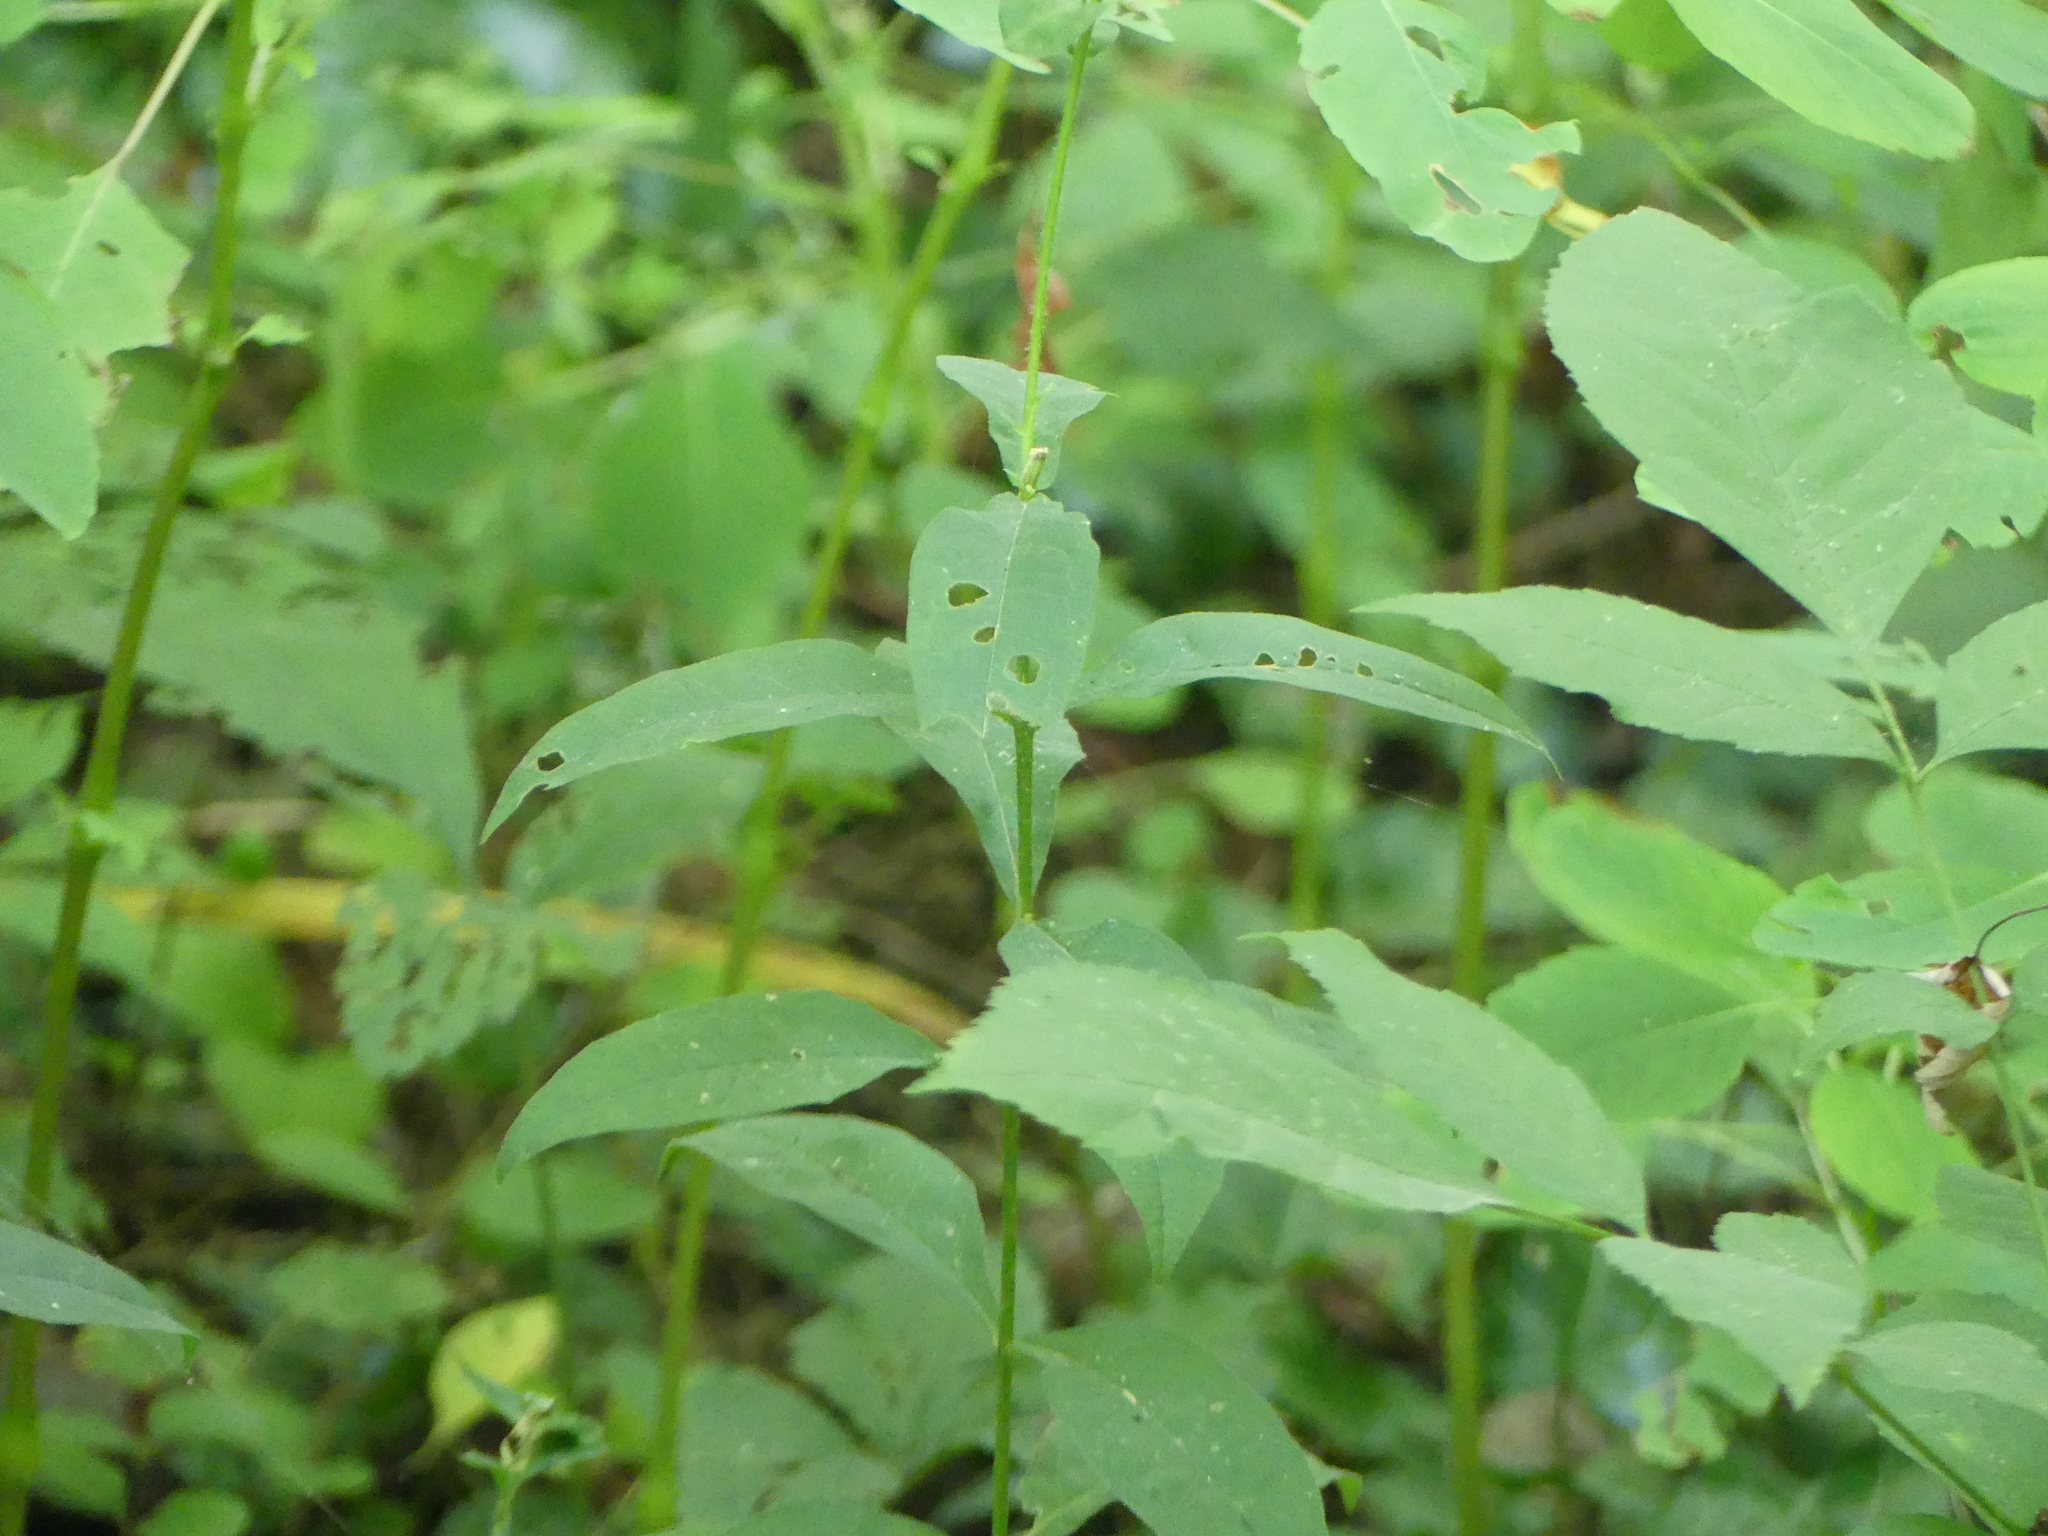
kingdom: Plantae
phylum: Tracheophyta
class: Magnoliopsida
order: Ericales
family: Polemoniaceae
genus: Phlox
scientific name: Phlox paniculata
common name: Fall phlox
